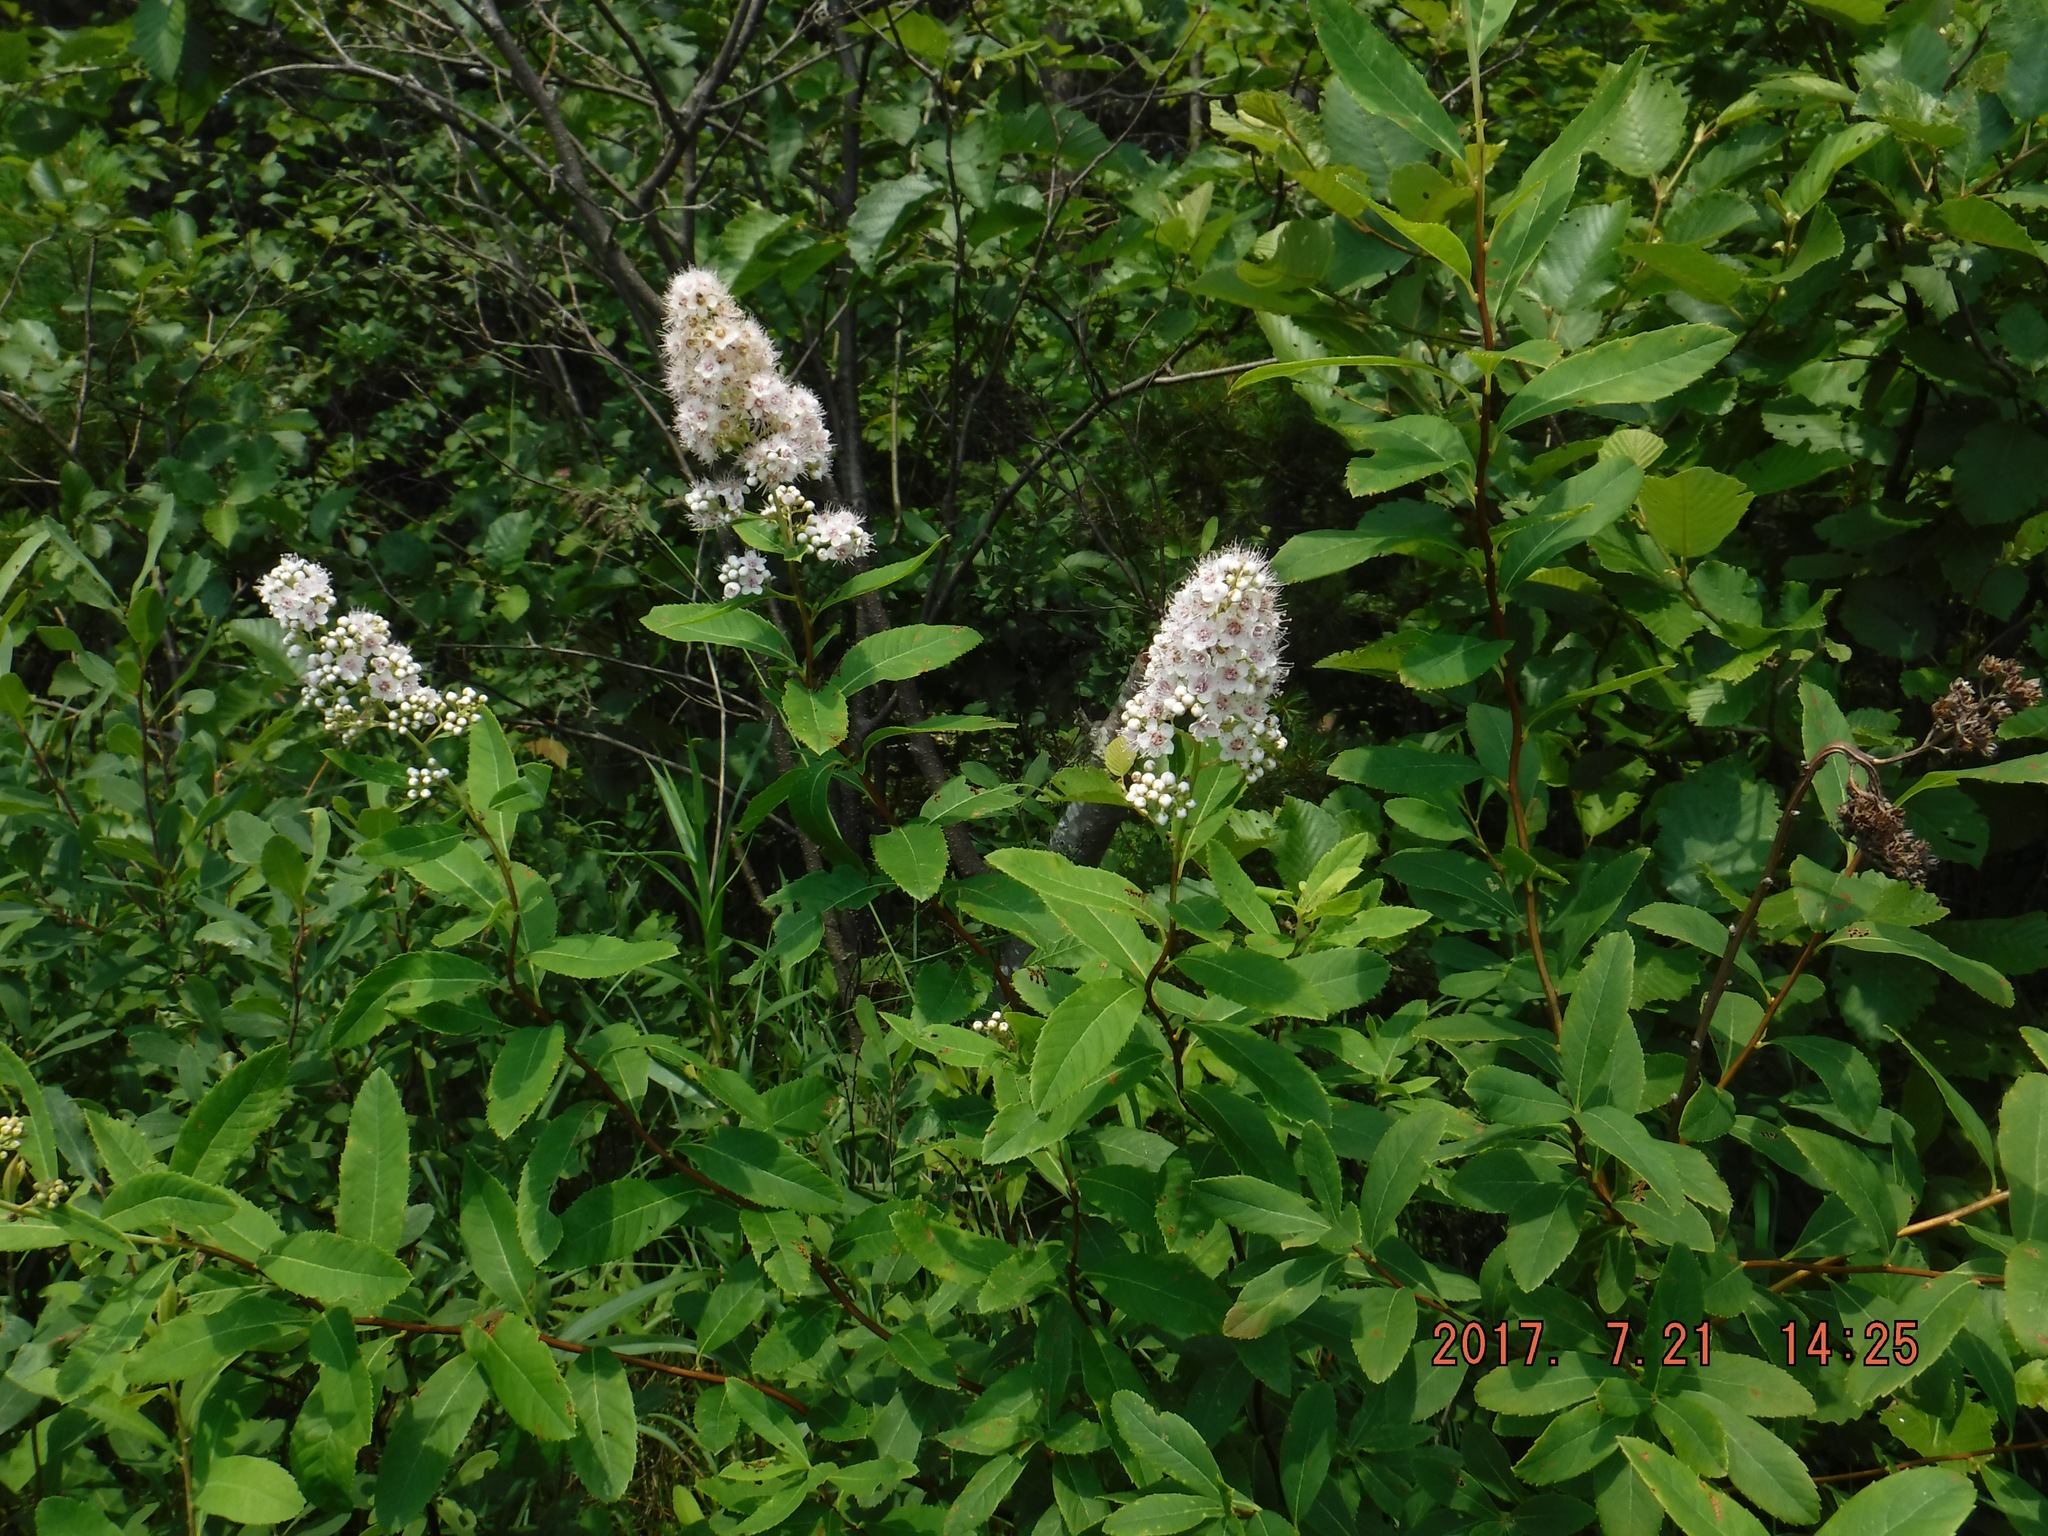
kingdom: Plantae
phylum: Tracheophyta
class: Magnoliopsida
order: Rosales
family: Rosaceae
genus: Spiraea
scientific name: Spiraea alba
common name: Pale bridewort
